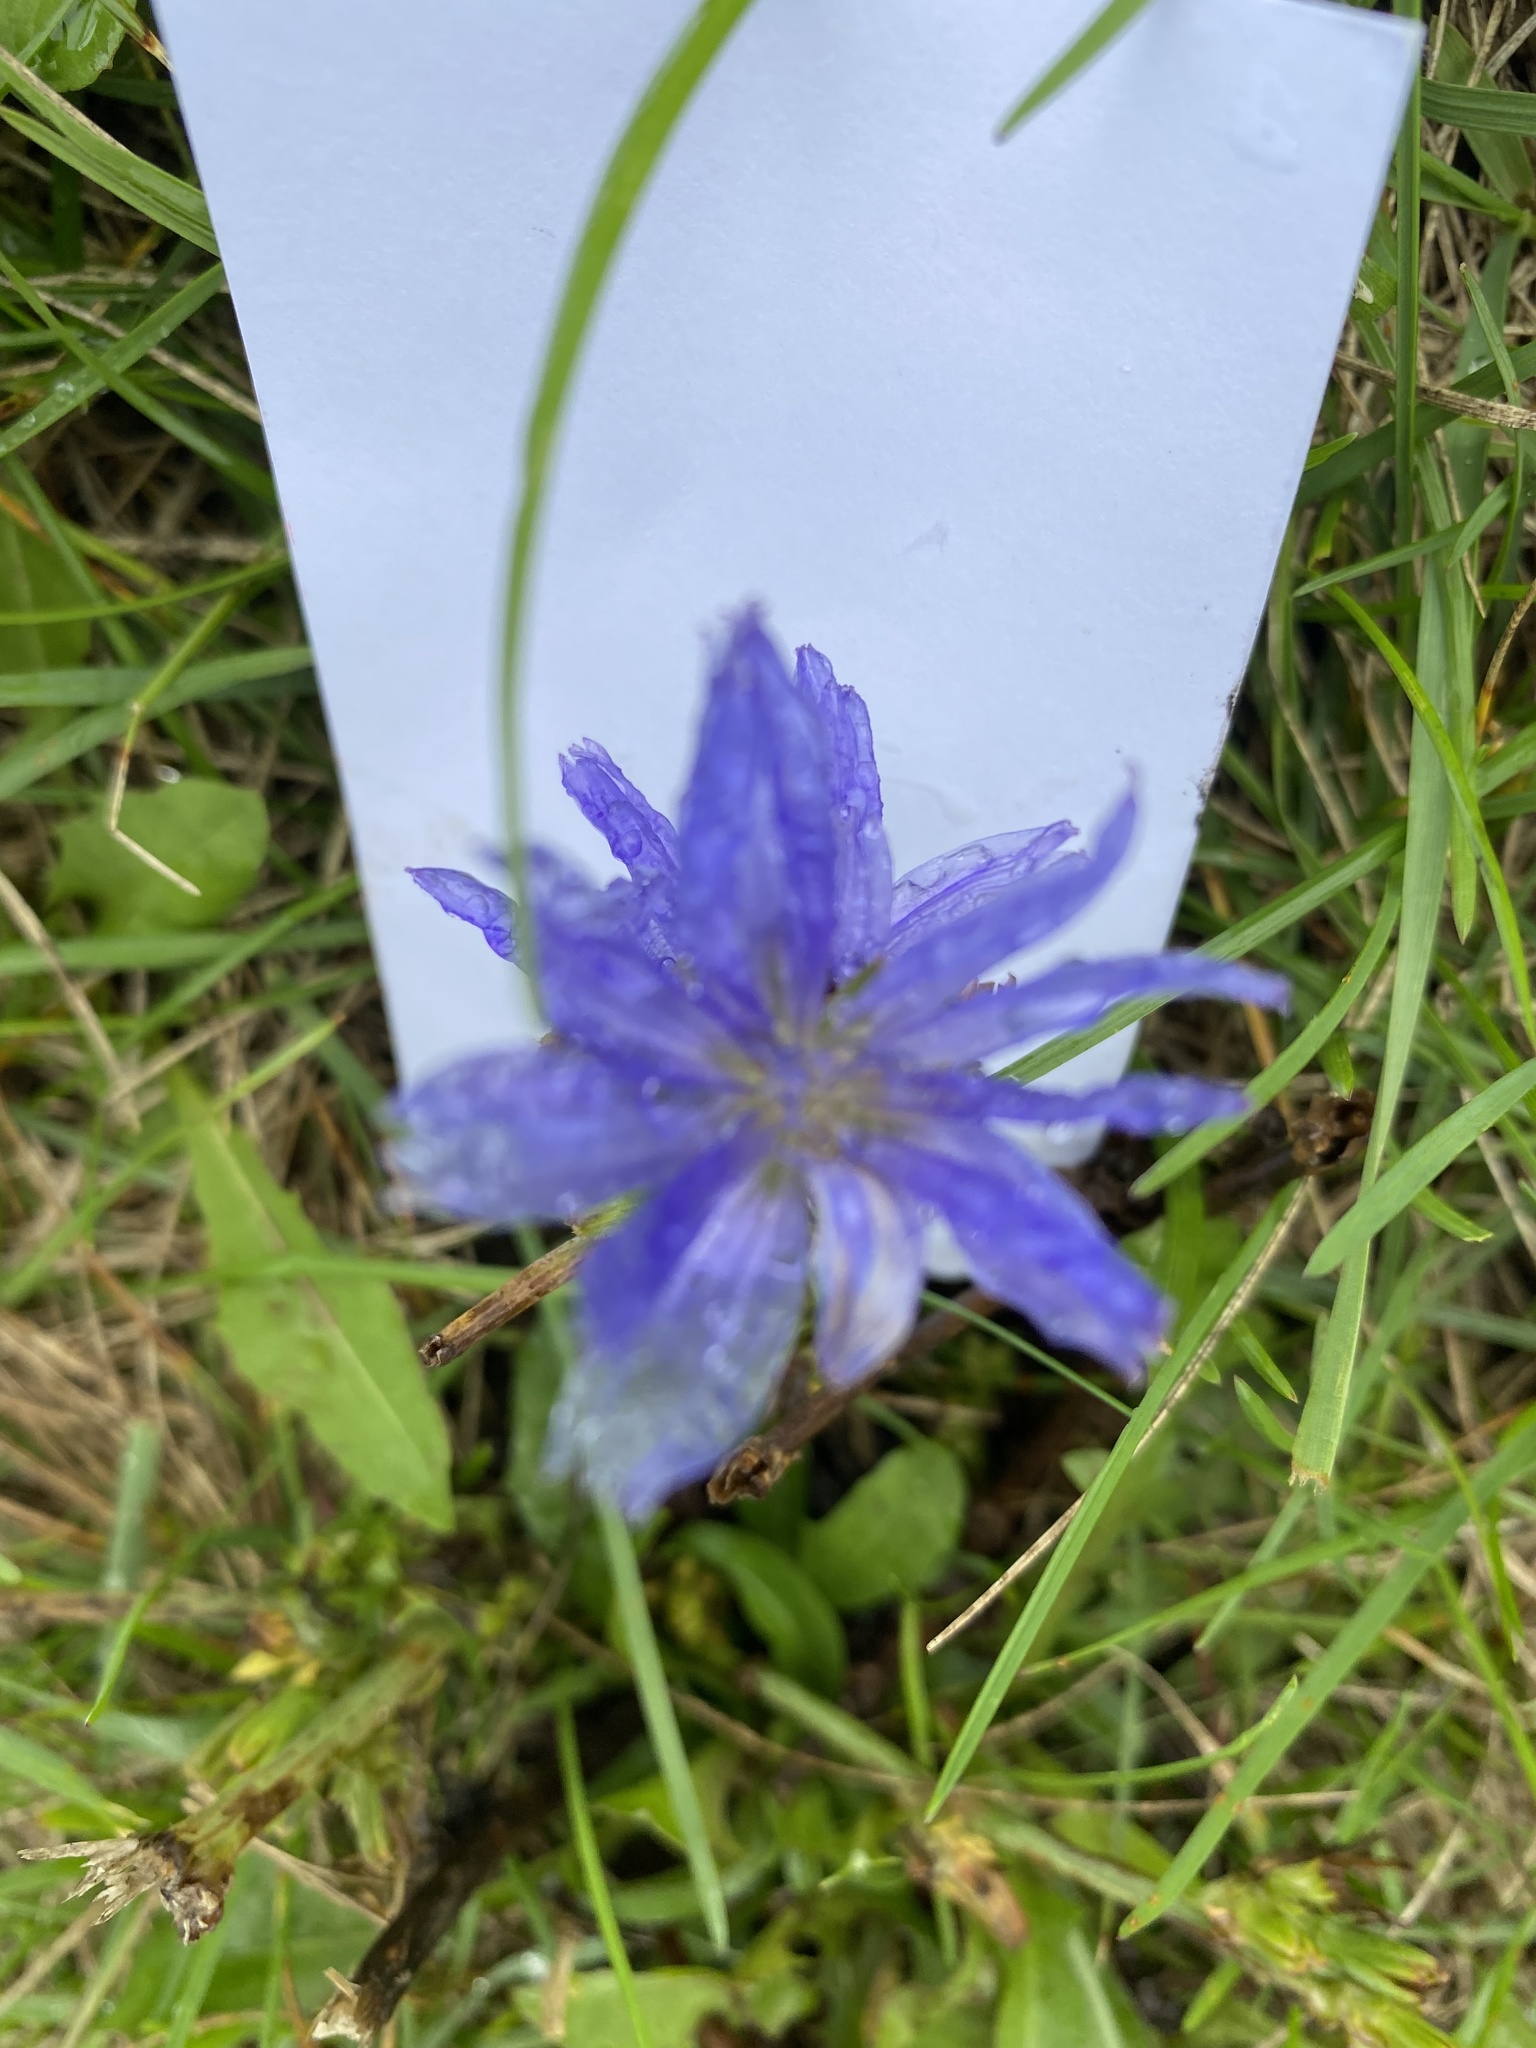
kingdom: Plantae
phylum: Tracheophyta
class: Magnoliopsida
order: Asterales
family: Asteraceae
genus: Cichorium
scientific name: Cichorium intybus
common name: Chicory
